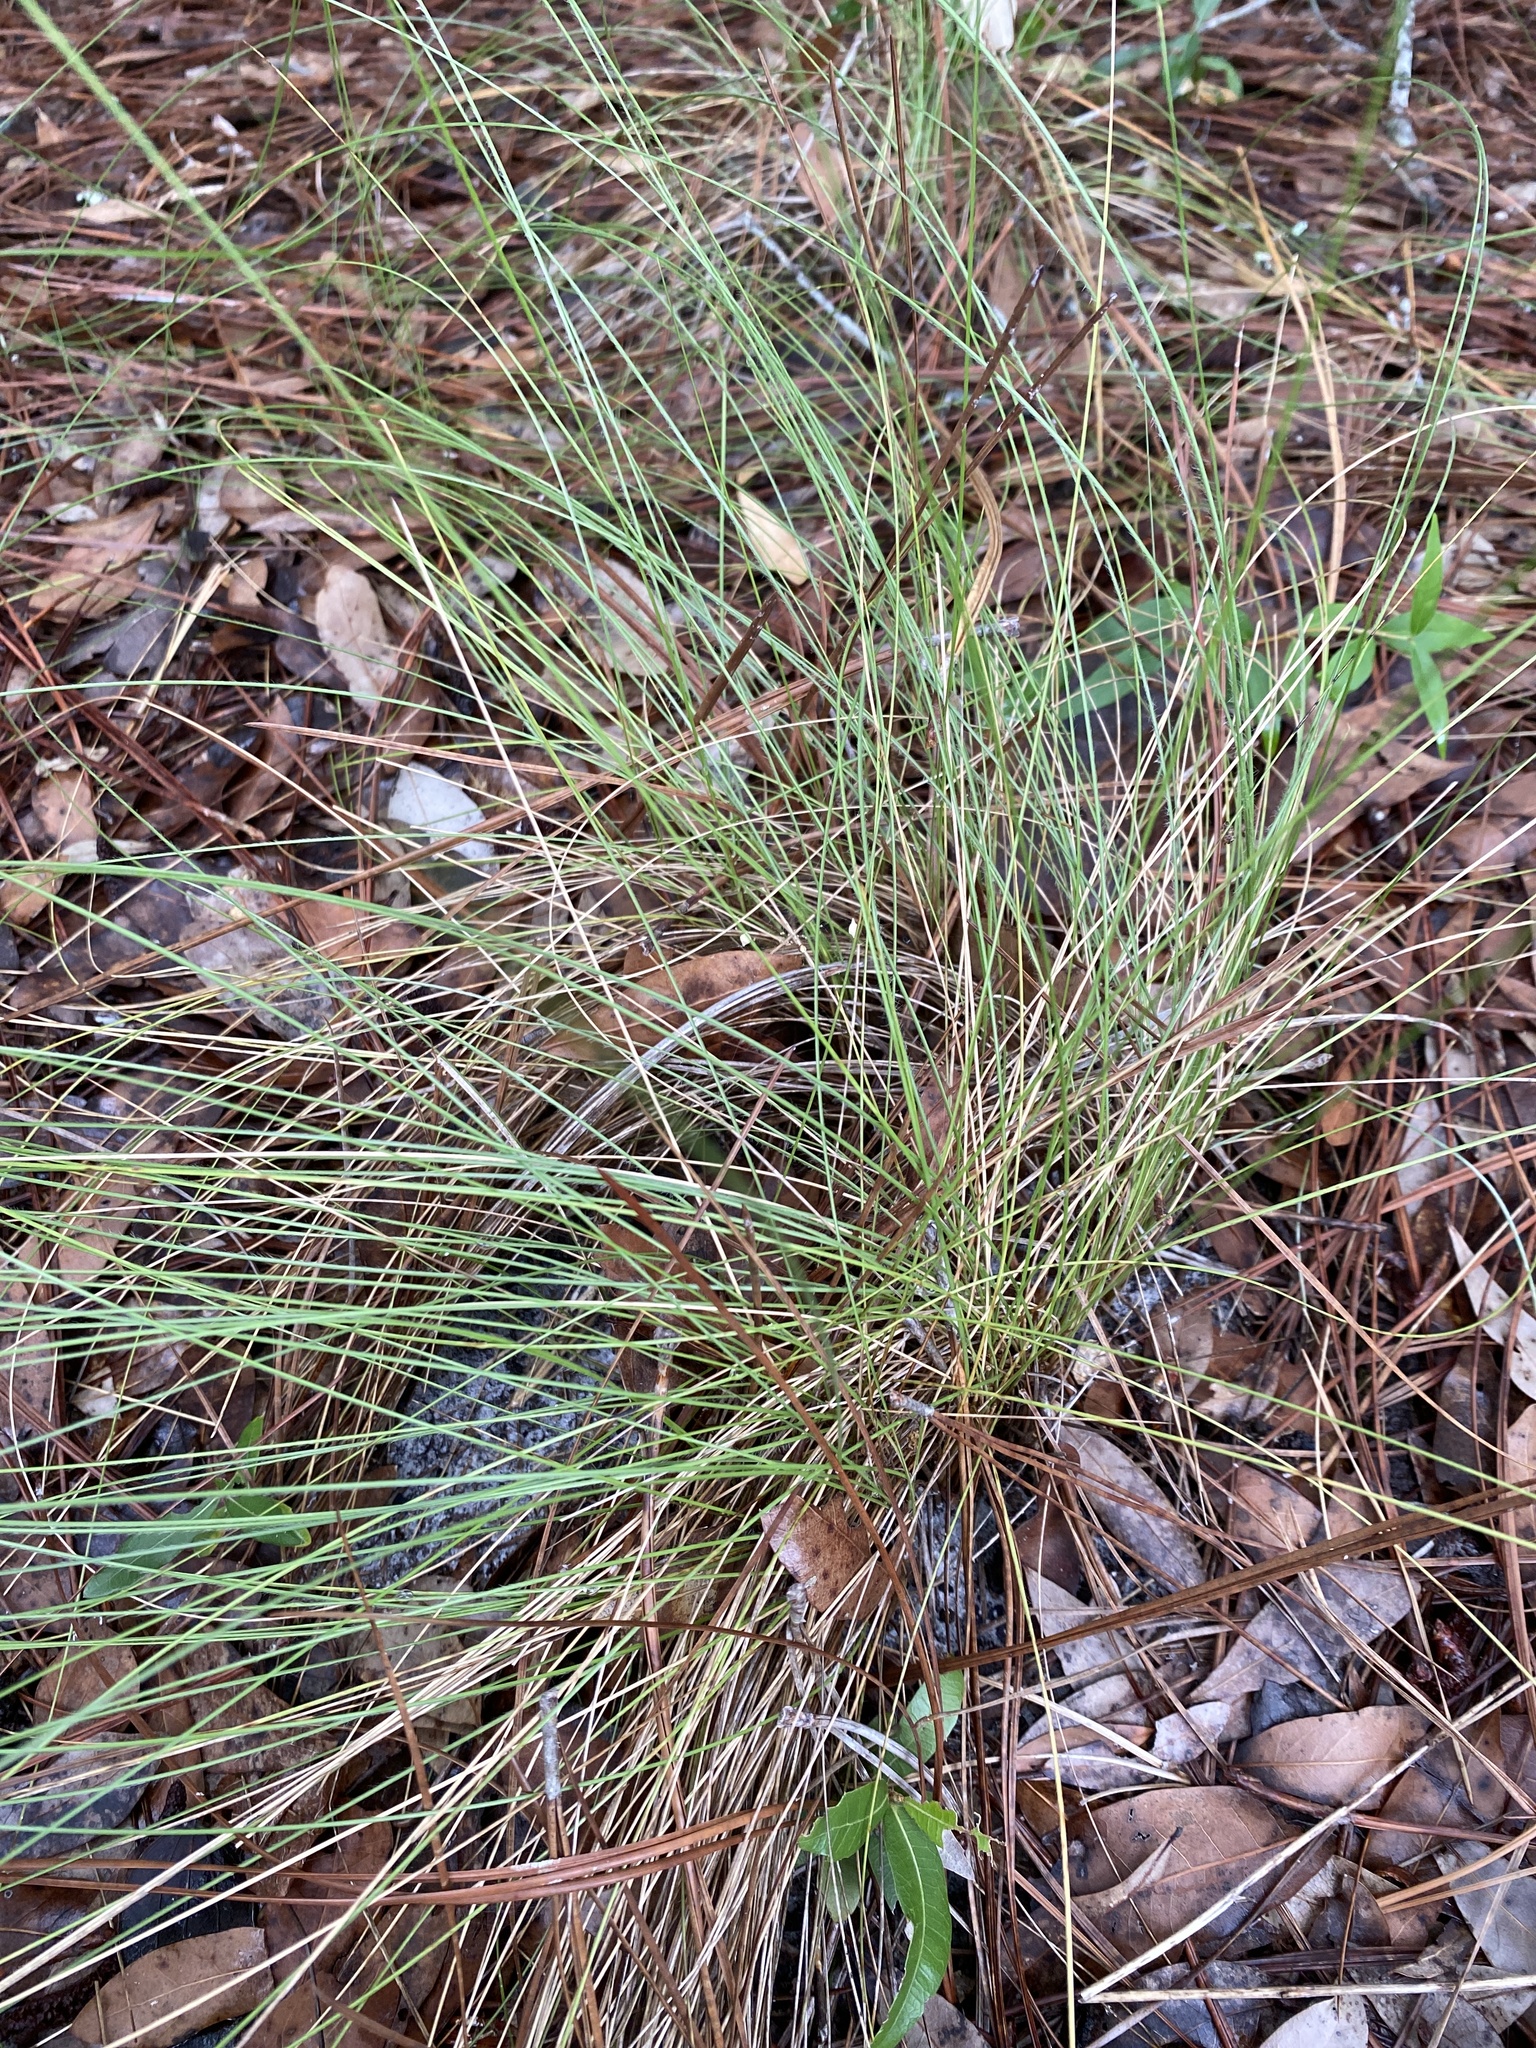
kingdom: Plantae
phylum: Tracheophyta
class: Liliopsida
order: Poales
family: Poaceae
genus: Aristida
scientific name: Aristida stricta
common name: Pineland three-awn
